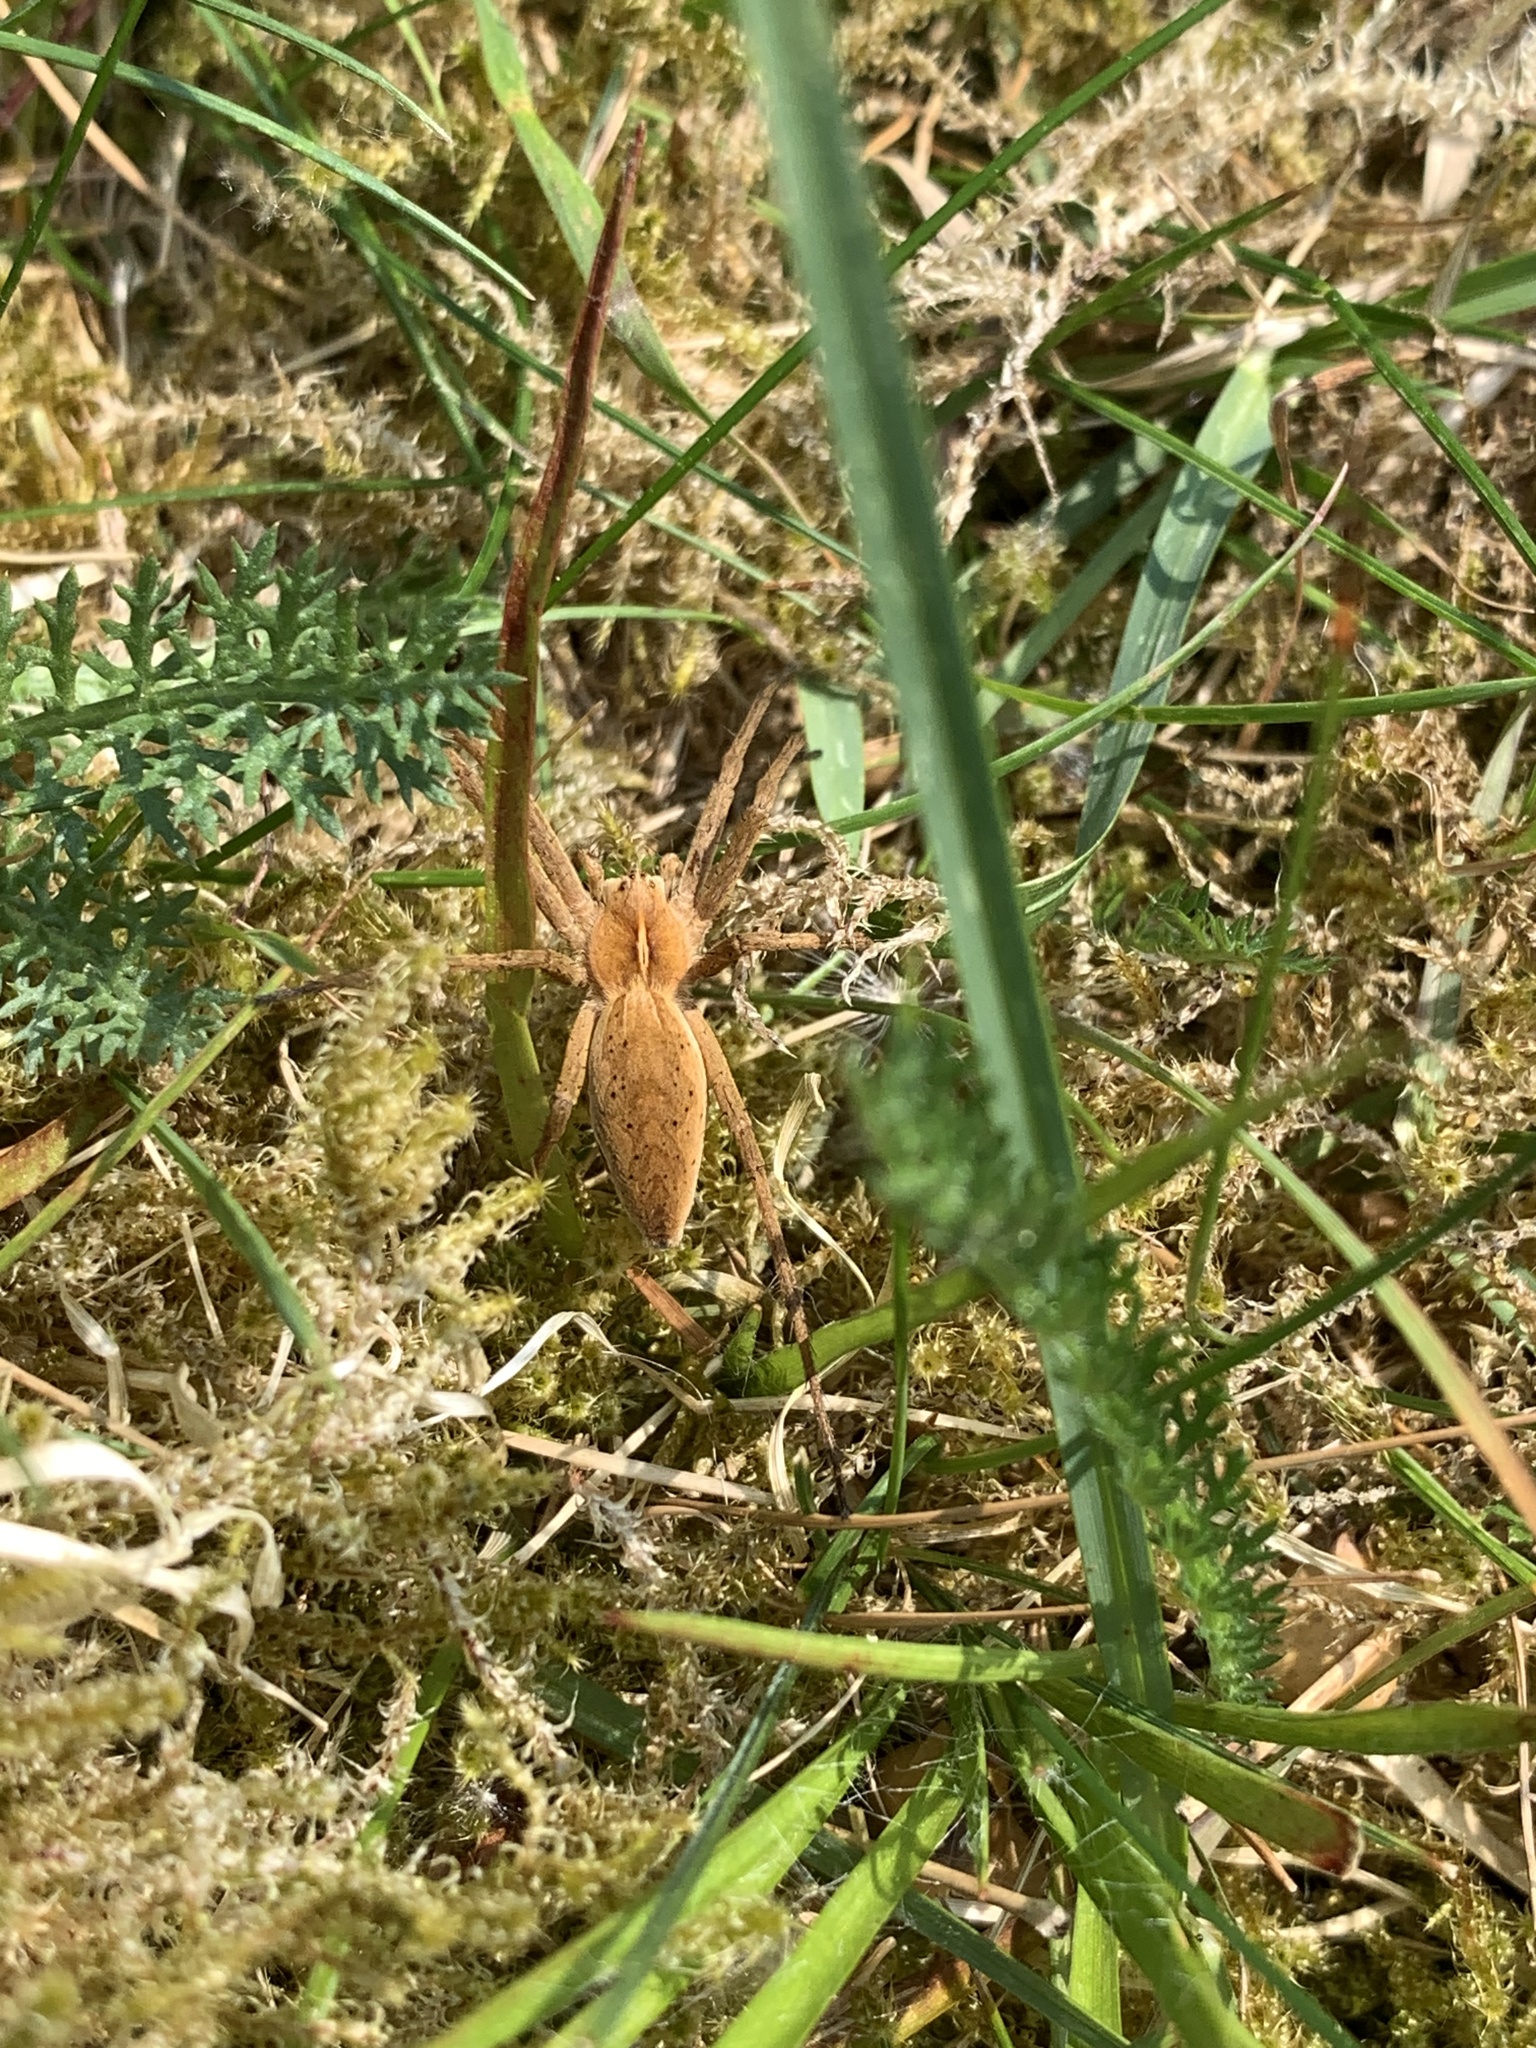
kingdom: Animalia
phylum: Arthropoda
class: Arachnida
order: Araneae
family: Pisauridae
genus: Pisaura
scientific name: Pisaura mirabilis
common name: Tent spider
